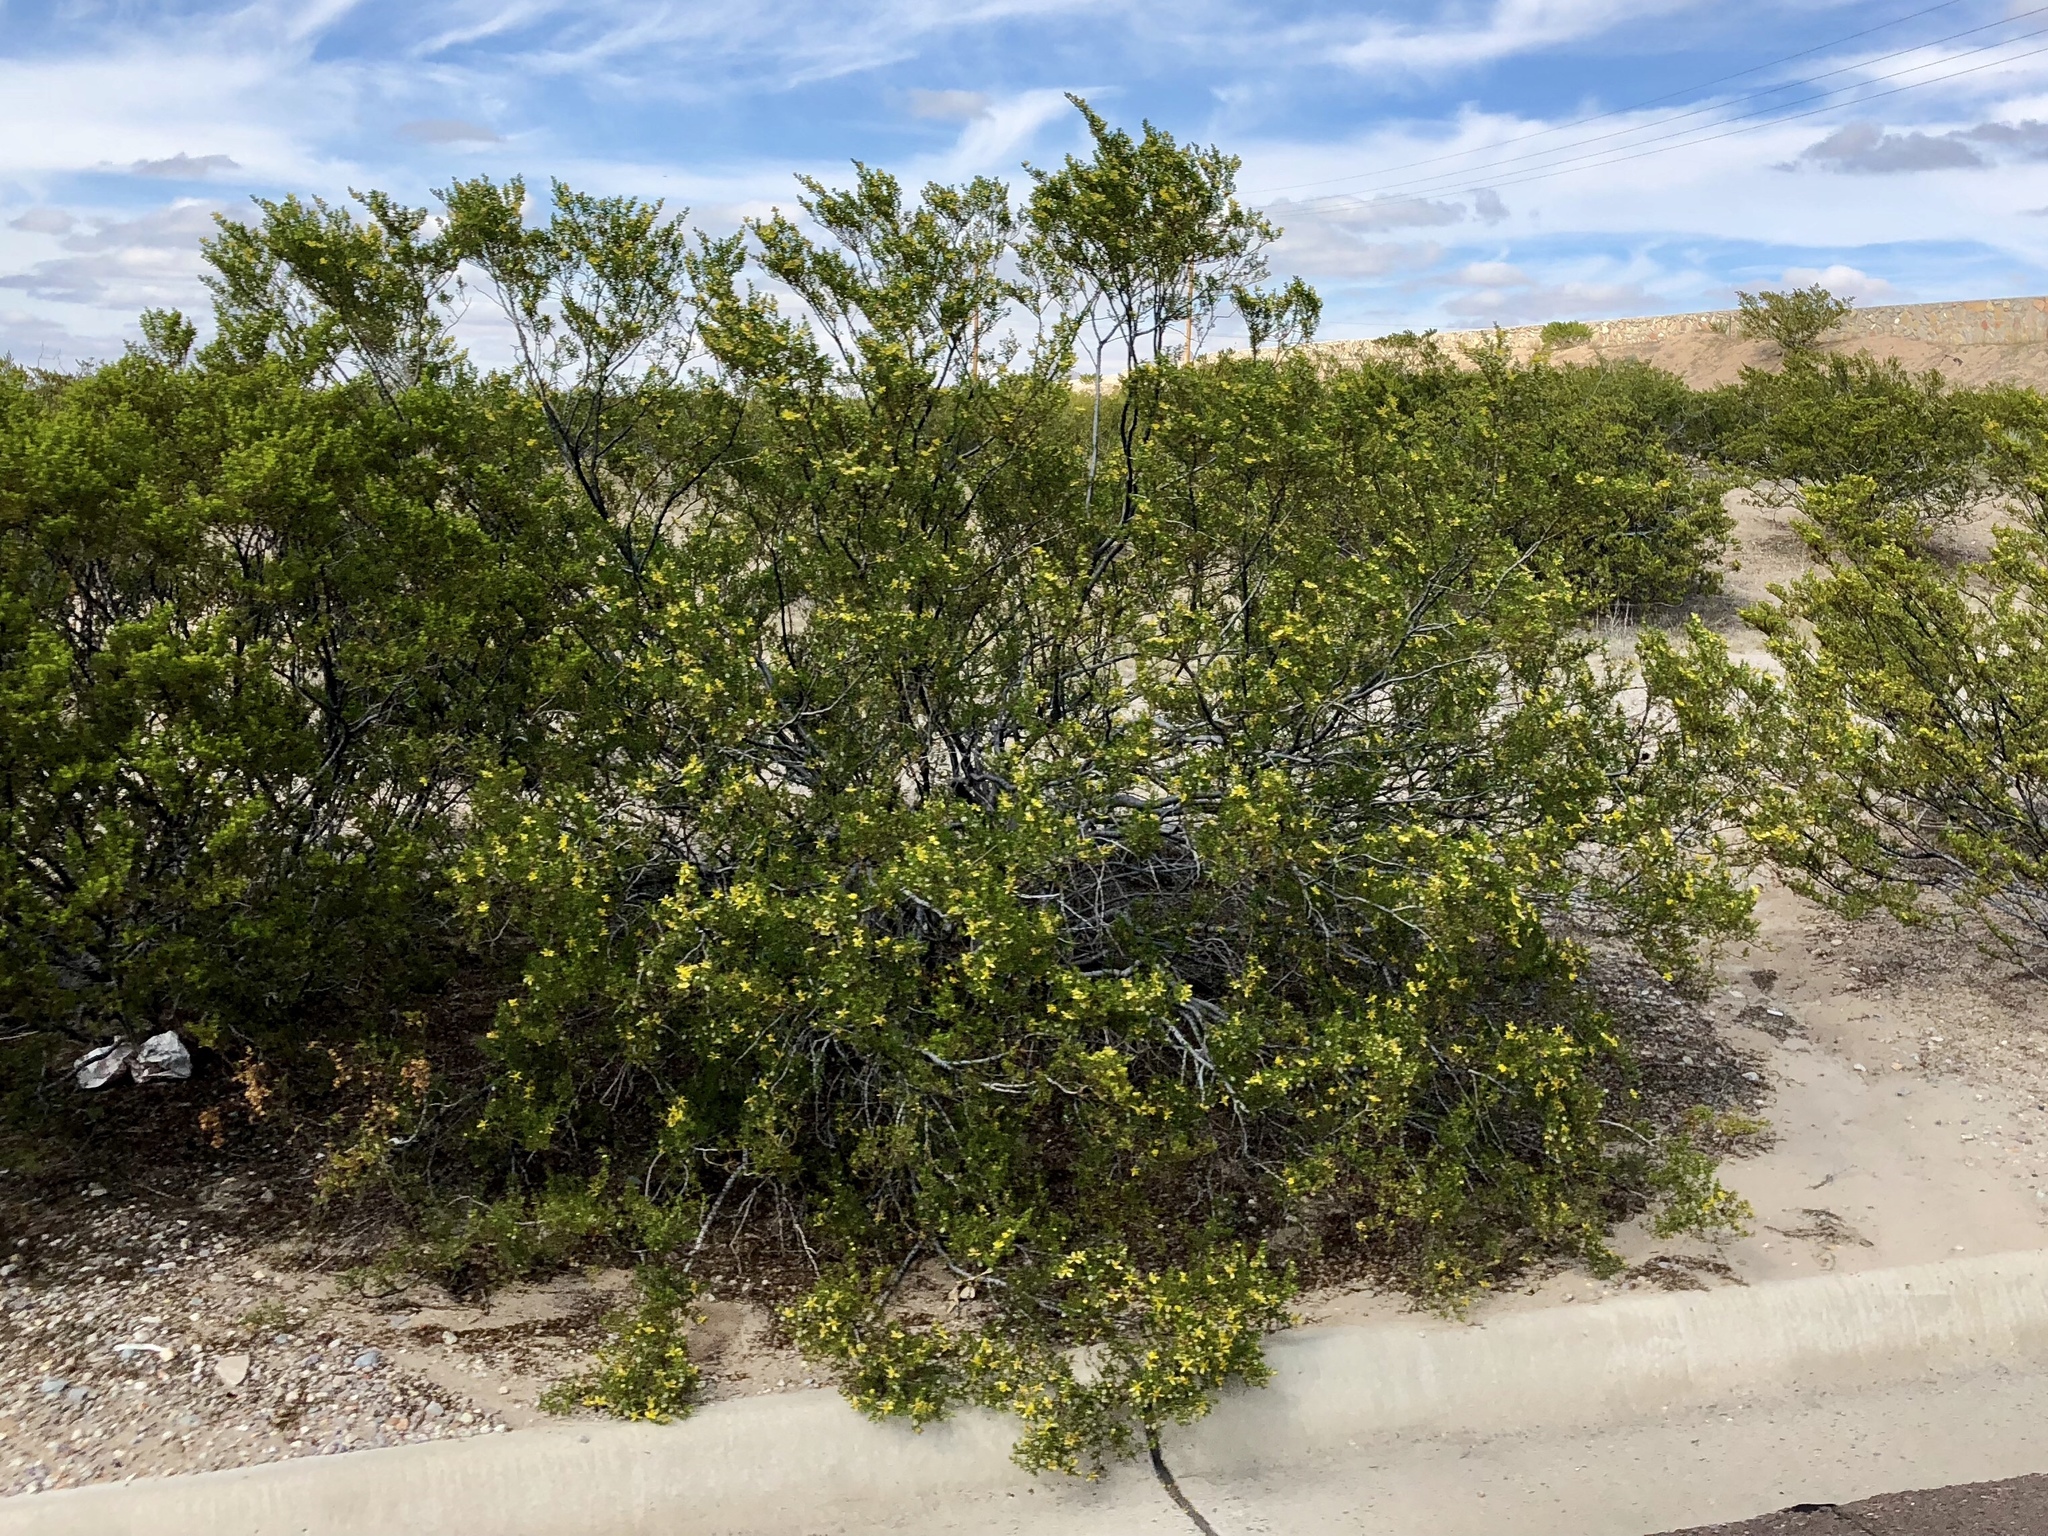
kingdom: Plantae
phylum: Tracheophyta
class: Magnoliopsida
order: Zygophyllales
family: Zygophyllaceae
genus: Larrea
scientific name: Larrea tridentata
